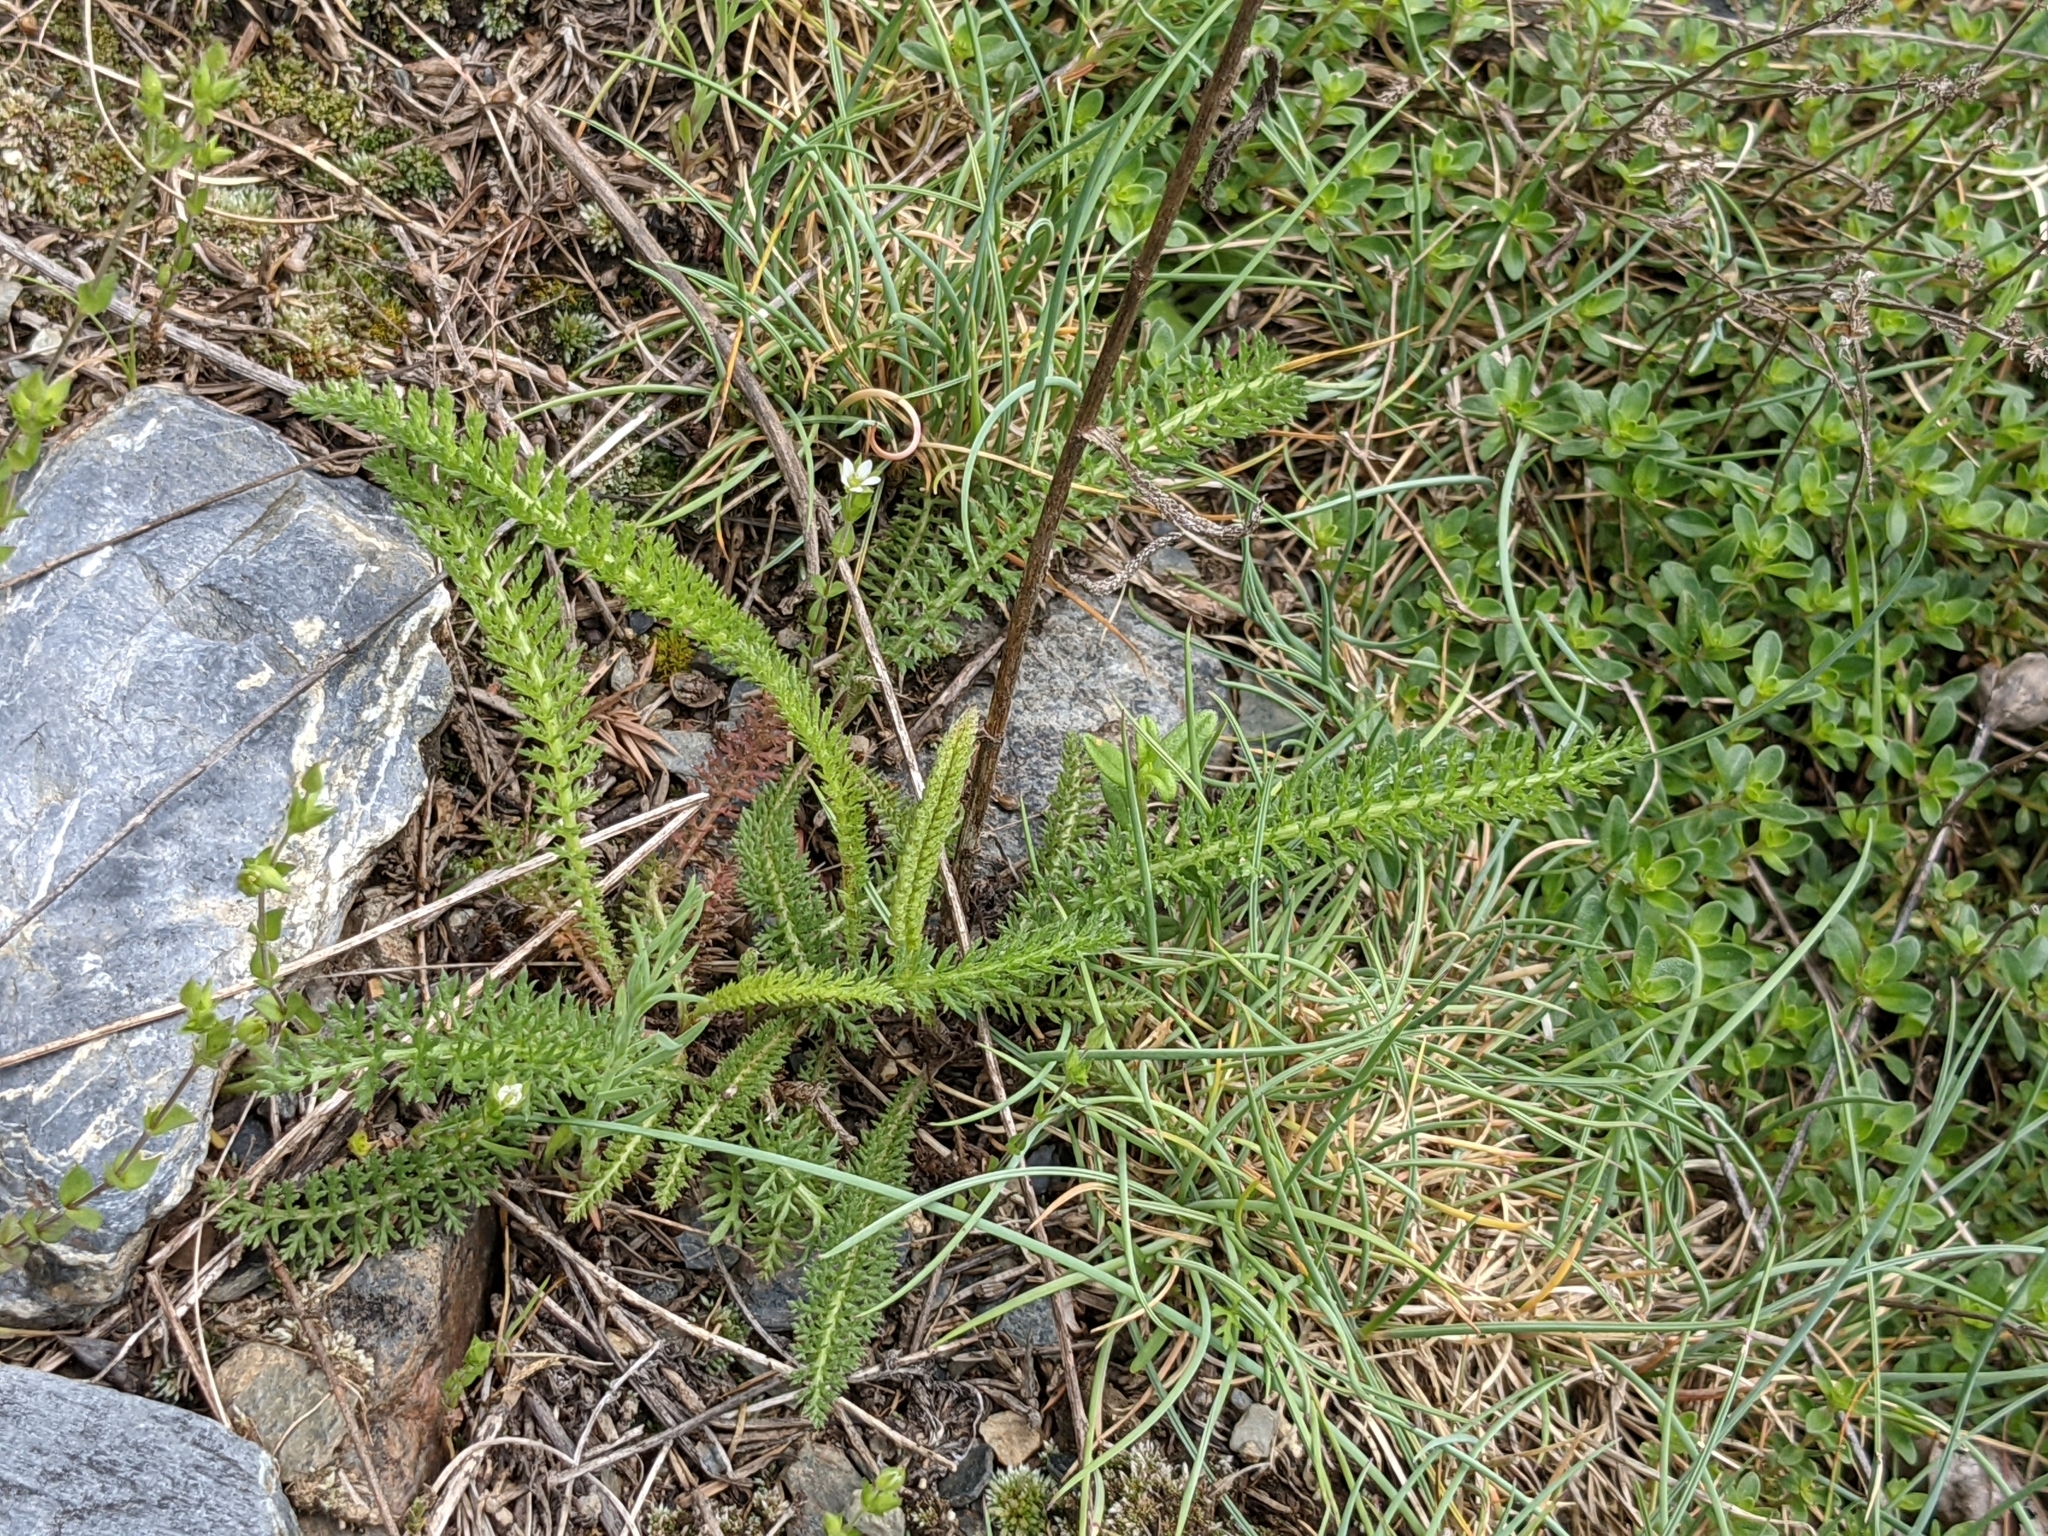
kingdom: Plantae
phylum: Tracheophyta
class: Magnoliopsida
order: Asterales
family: Asteraceae
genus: Achillea
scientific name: Achillea millefolium
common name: Yarrow
